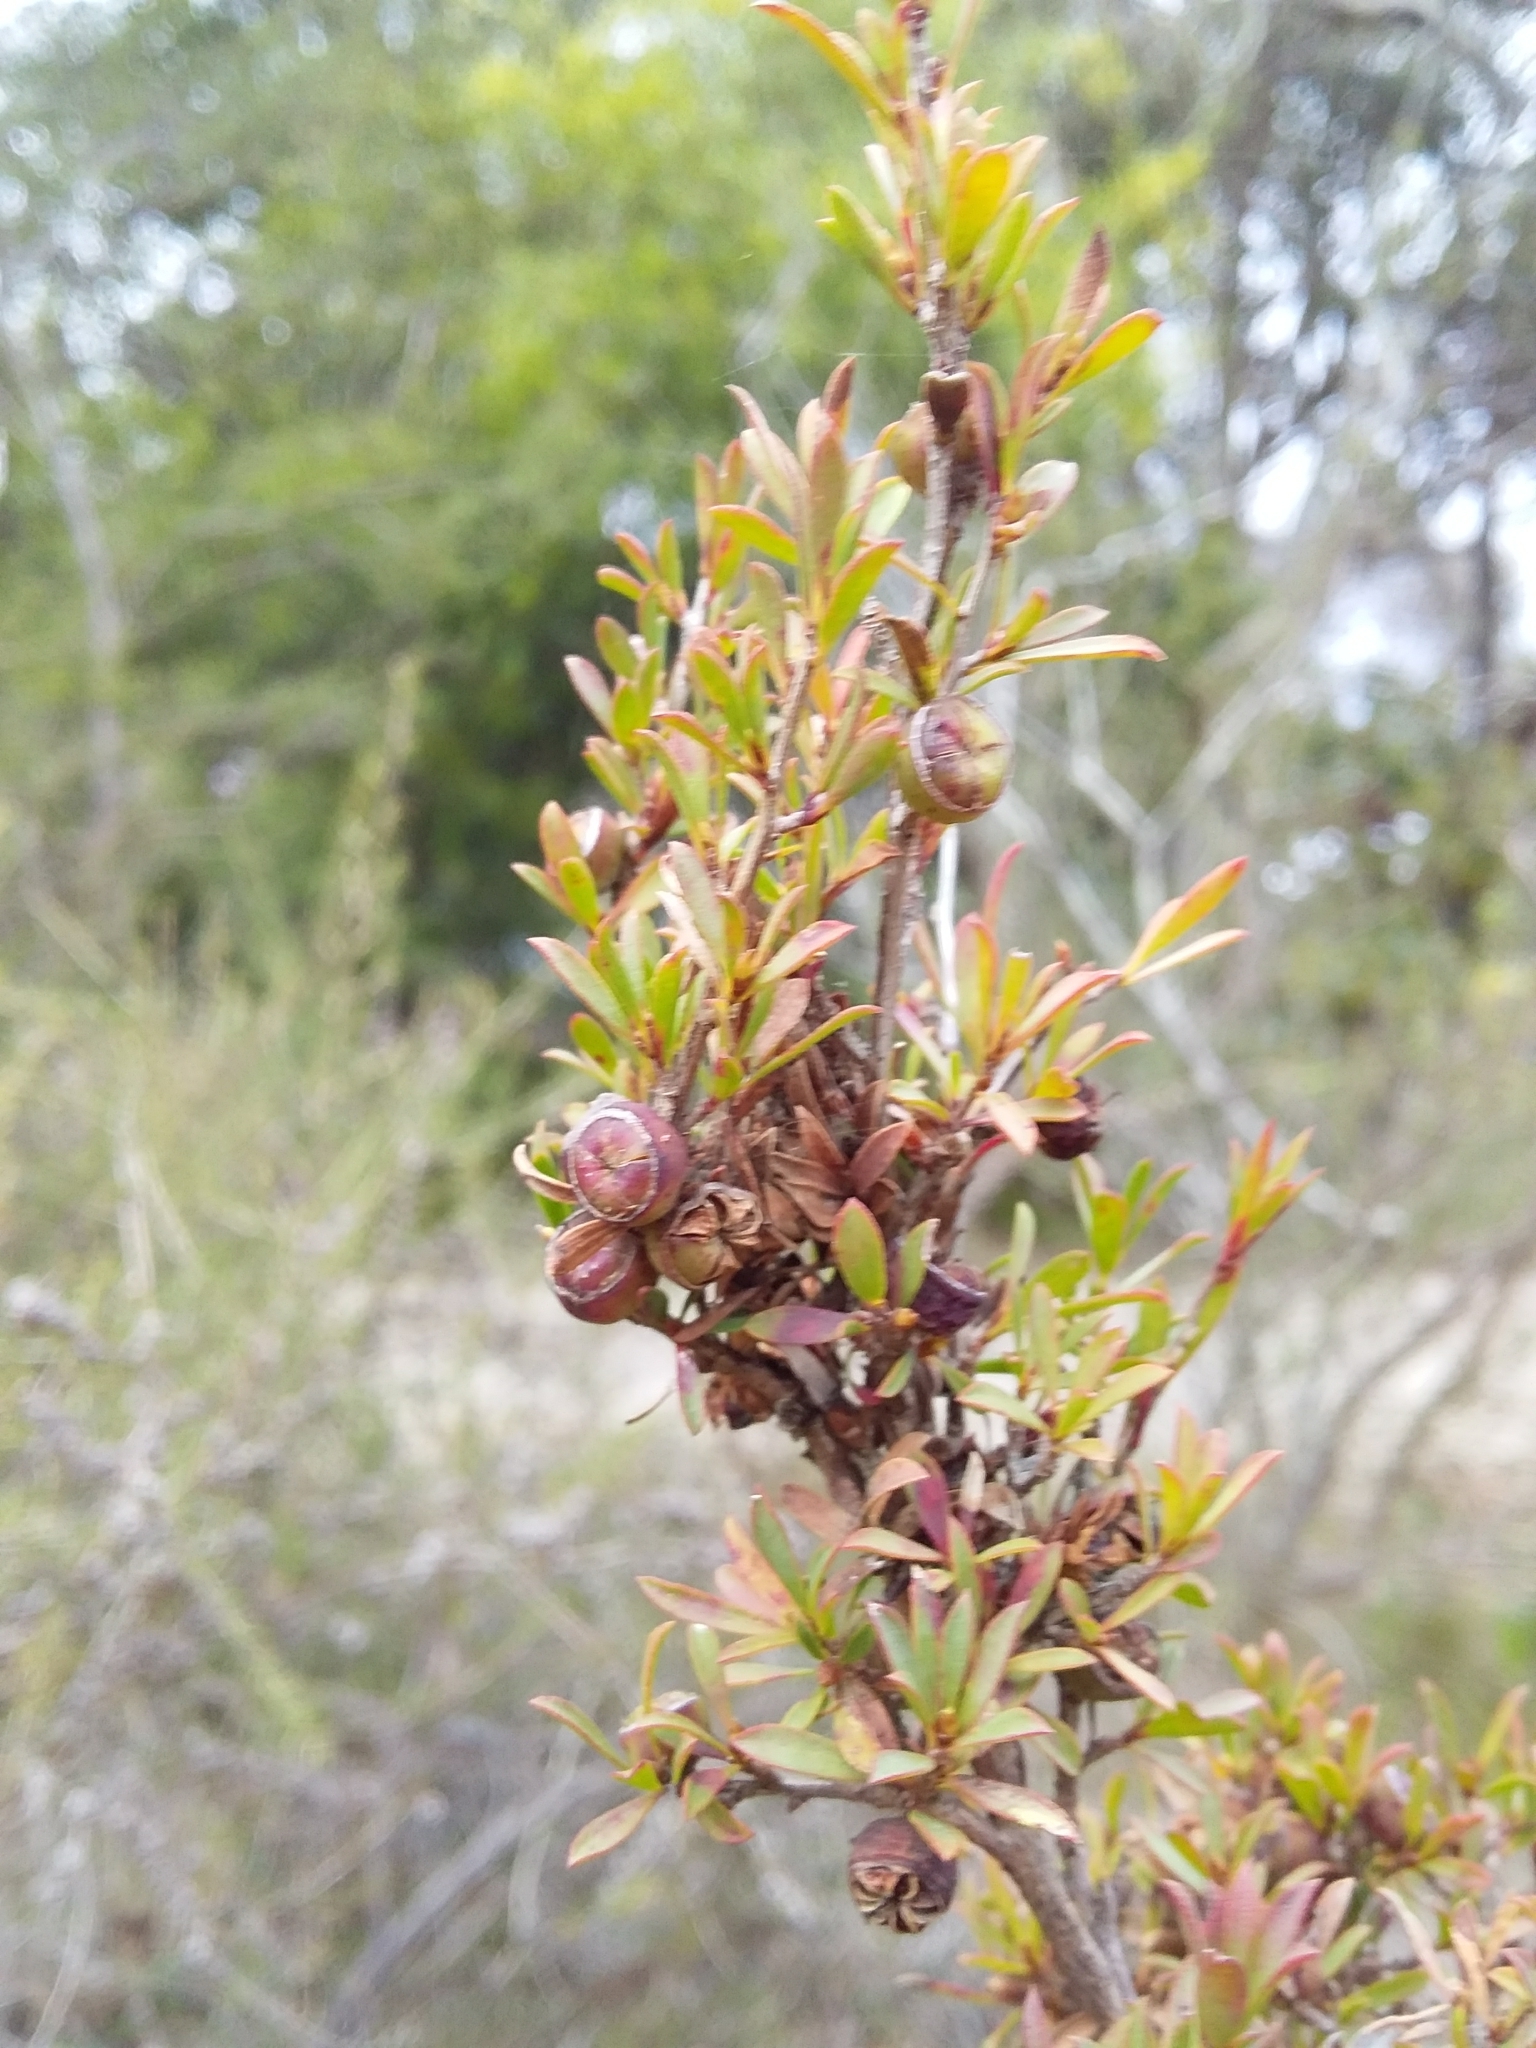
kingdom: Plantae
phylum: Tracheophyta
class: Magnoliopsida
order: Myrtales
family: Myrtaceae
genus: Leptospermum
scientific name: Leptospermum myrsinoides
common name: Heath teatree
